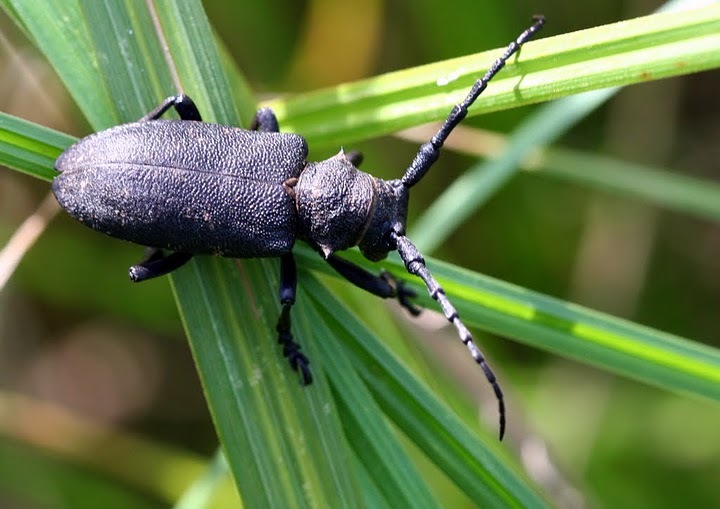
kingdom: Animalia
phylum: Arthropoda
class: Insecta
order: Coleoptera
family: Cerambycidae
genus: Lamia
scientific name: Lamia textor
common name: Weaver beetle
